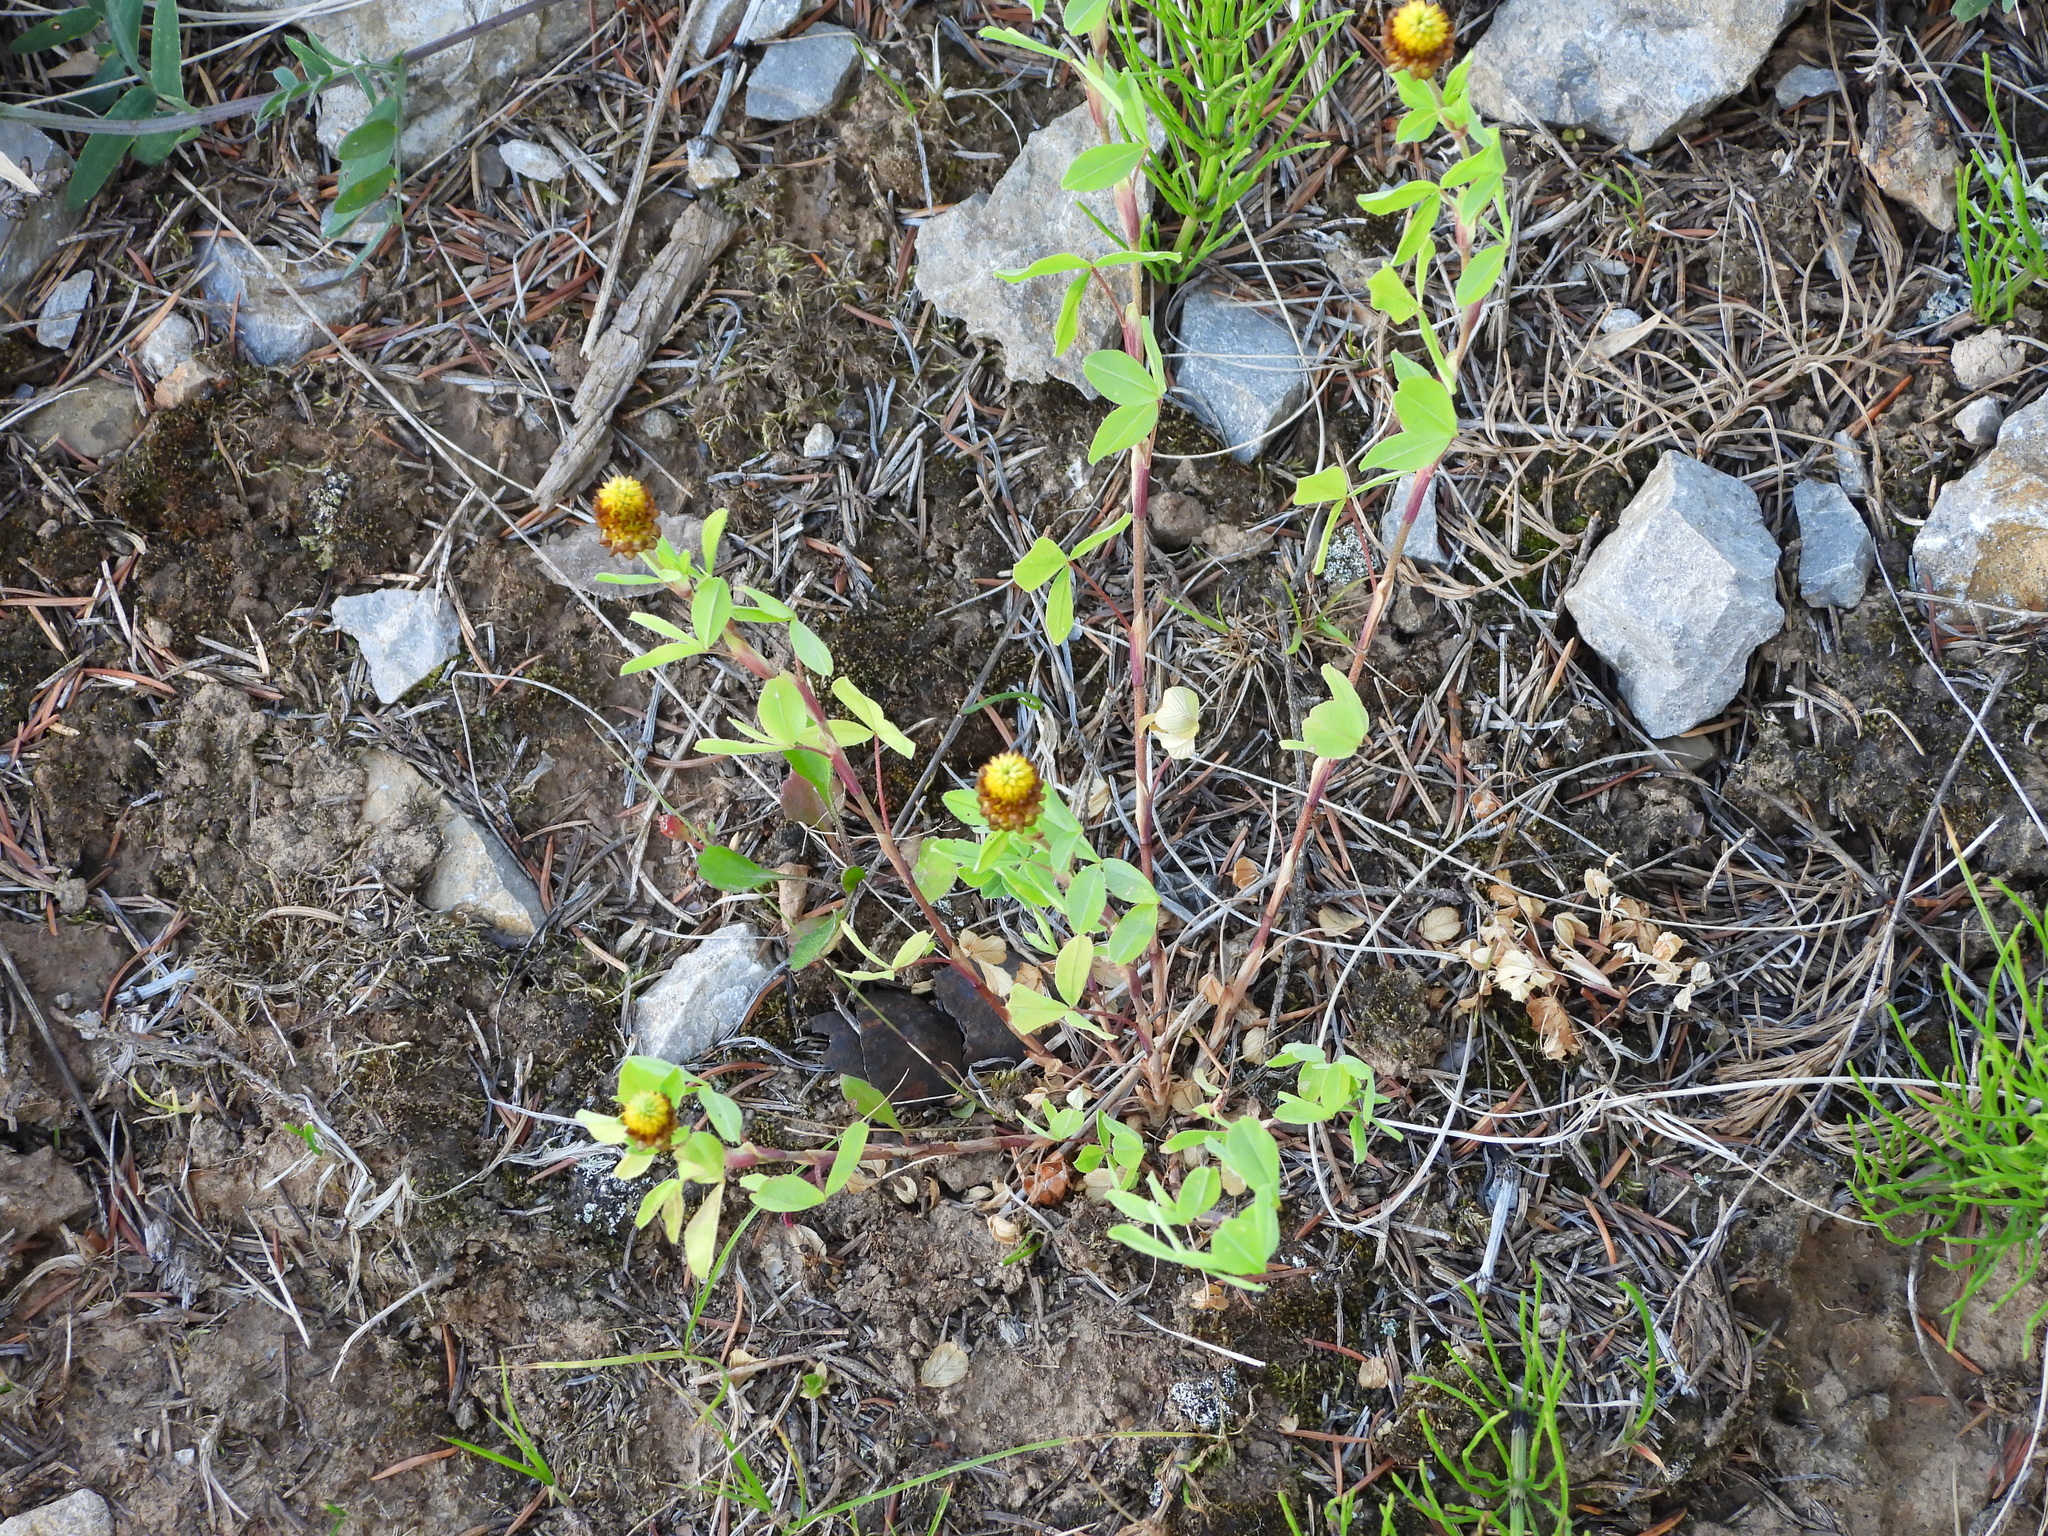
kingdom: Plantae
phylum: Tracheophyta
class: Magnoliopsida
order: Fabales
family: Fabaceae
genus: Trifolium
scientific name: Trifolium spadiceum
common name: Brown moor clover
